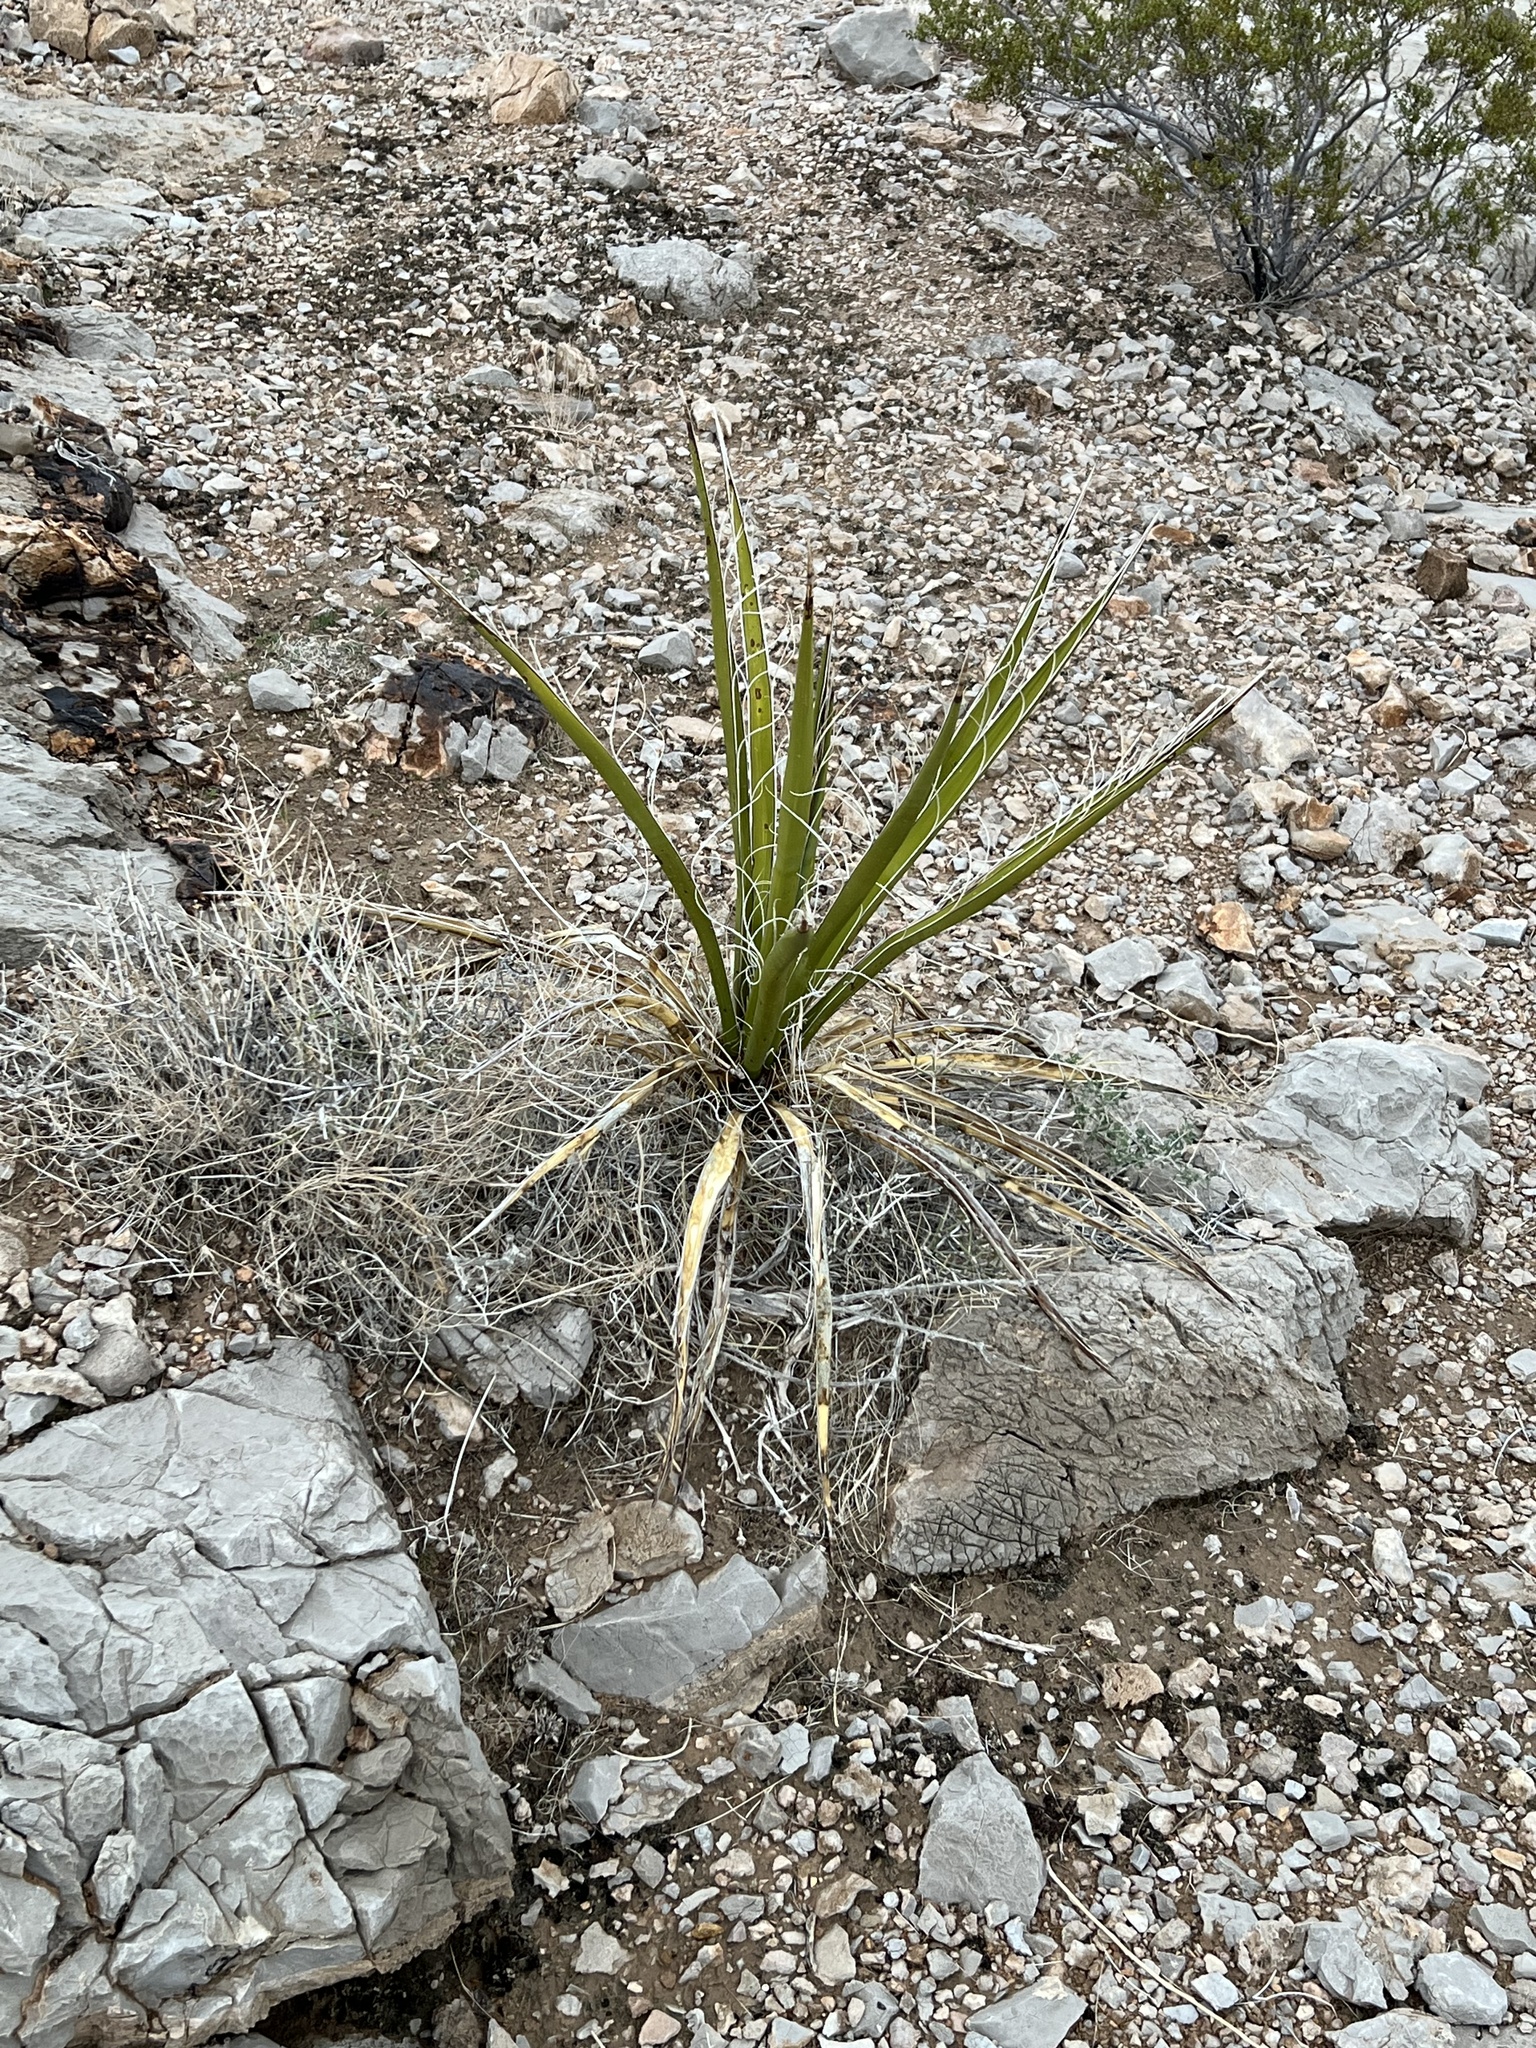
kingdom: Plantae
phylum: Tracheophyta
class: Liliopsida
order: Asparagales
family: Asparagaceae
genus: Yucca
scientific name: Yucca baccata
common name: Banana yucca
